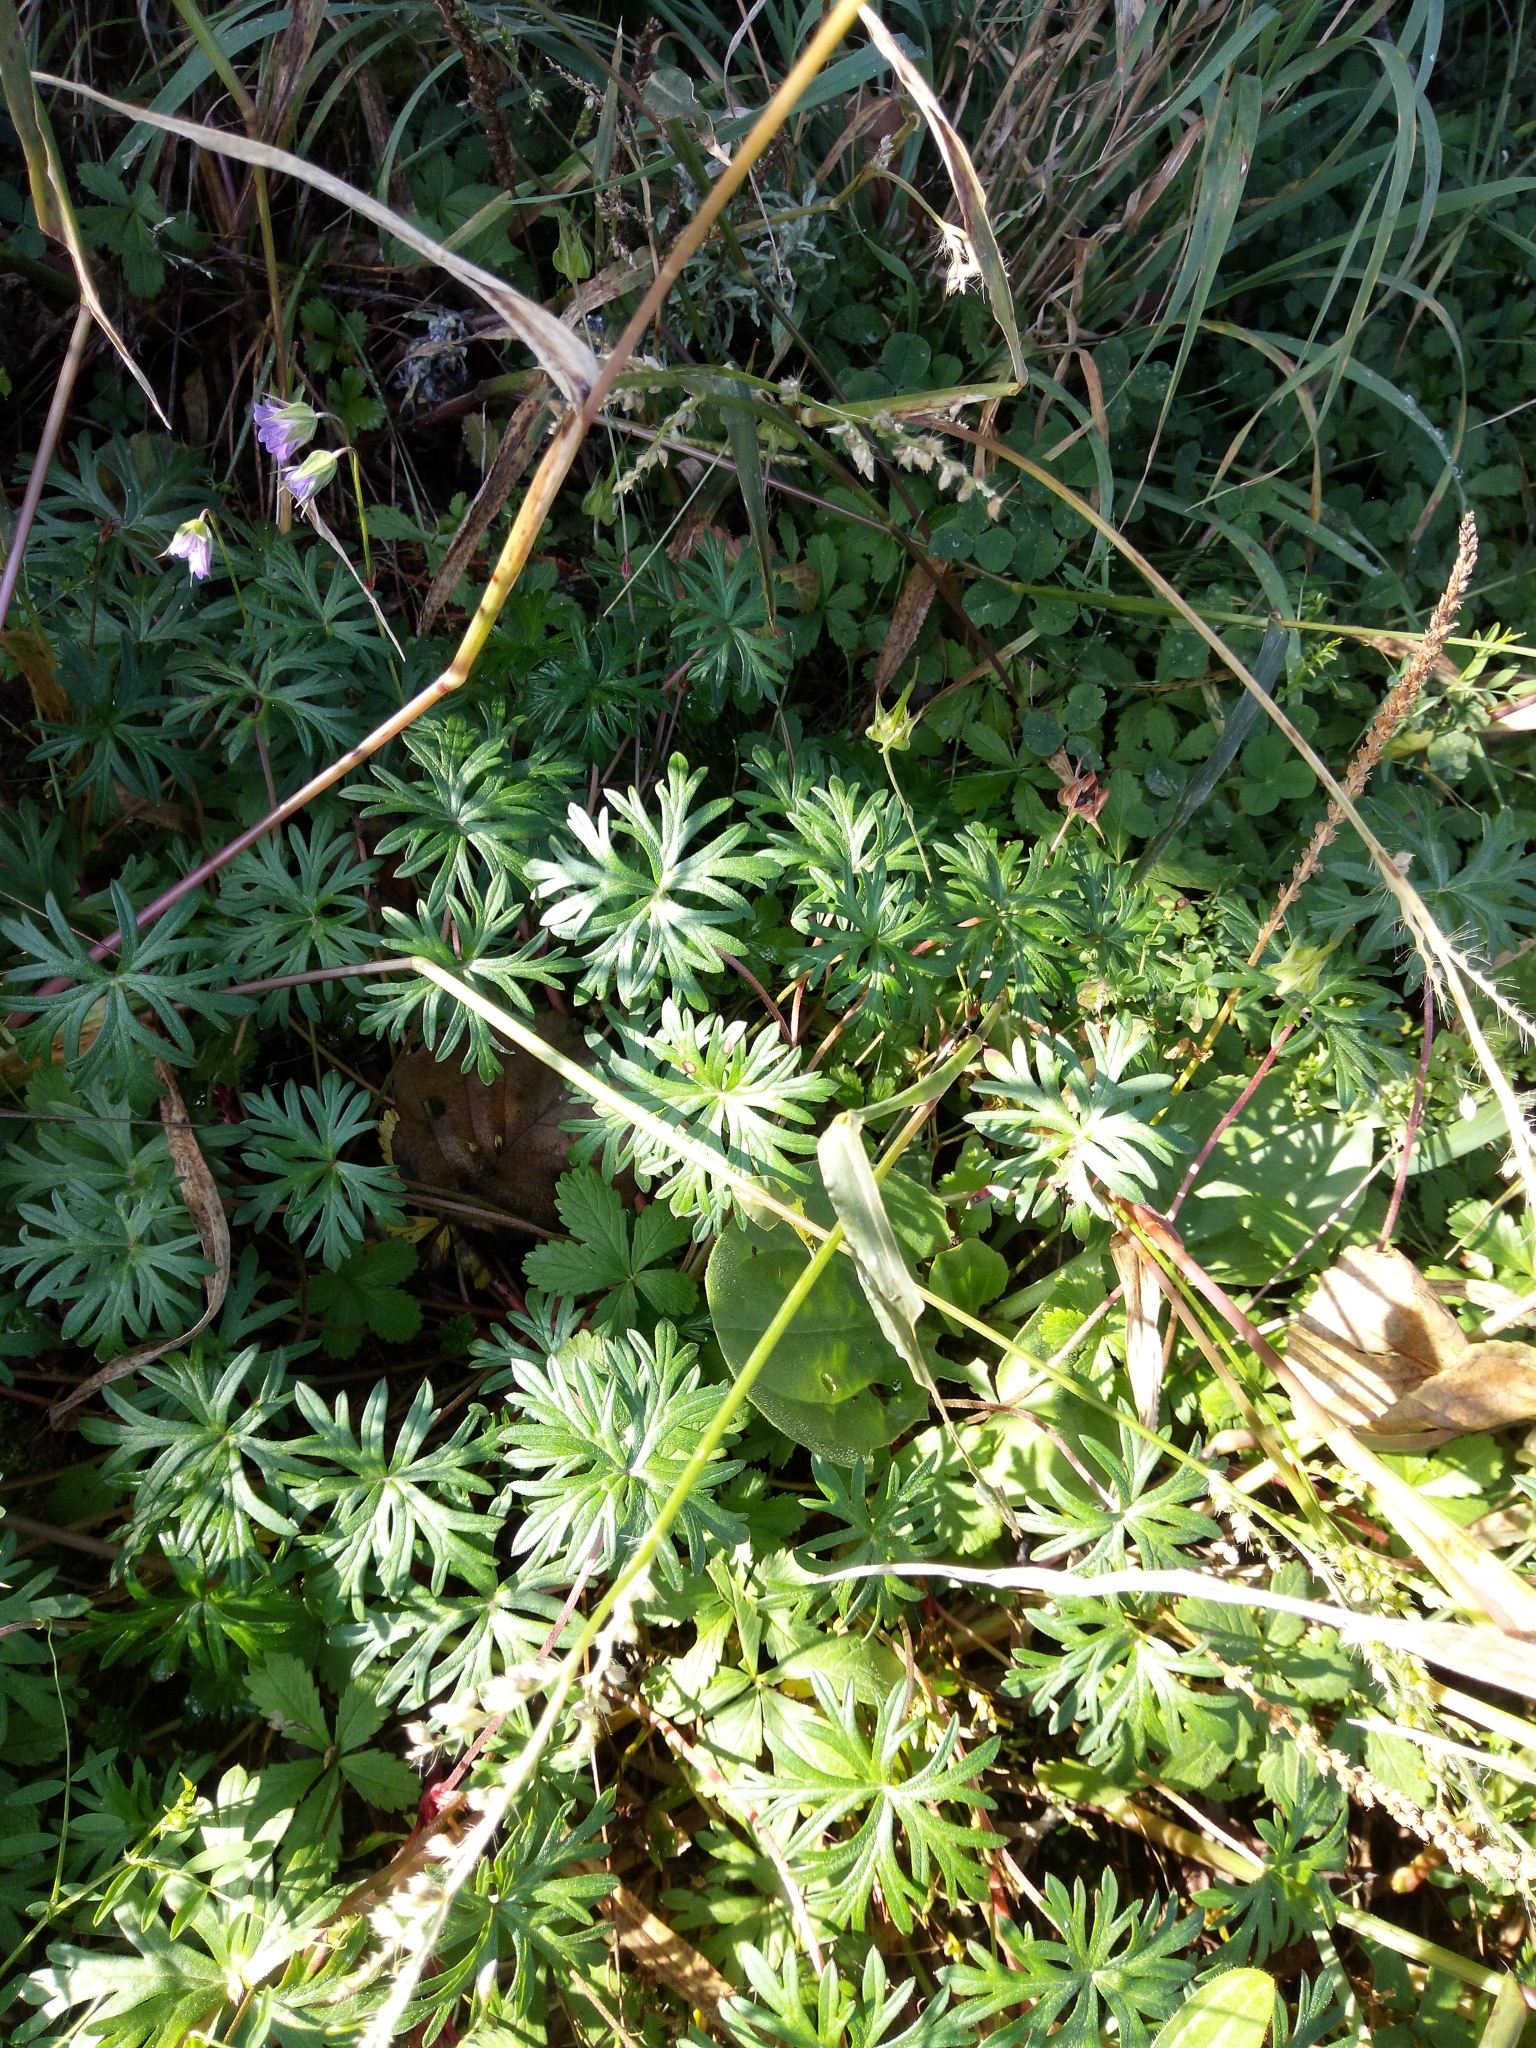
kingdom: Plantae
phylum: Tracheophyta
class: Magnoliopsida
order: Geraniales
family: Geraniaceae
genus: Geranium
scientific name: Geranium columbinum
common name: Long-stalked crane's-bill
